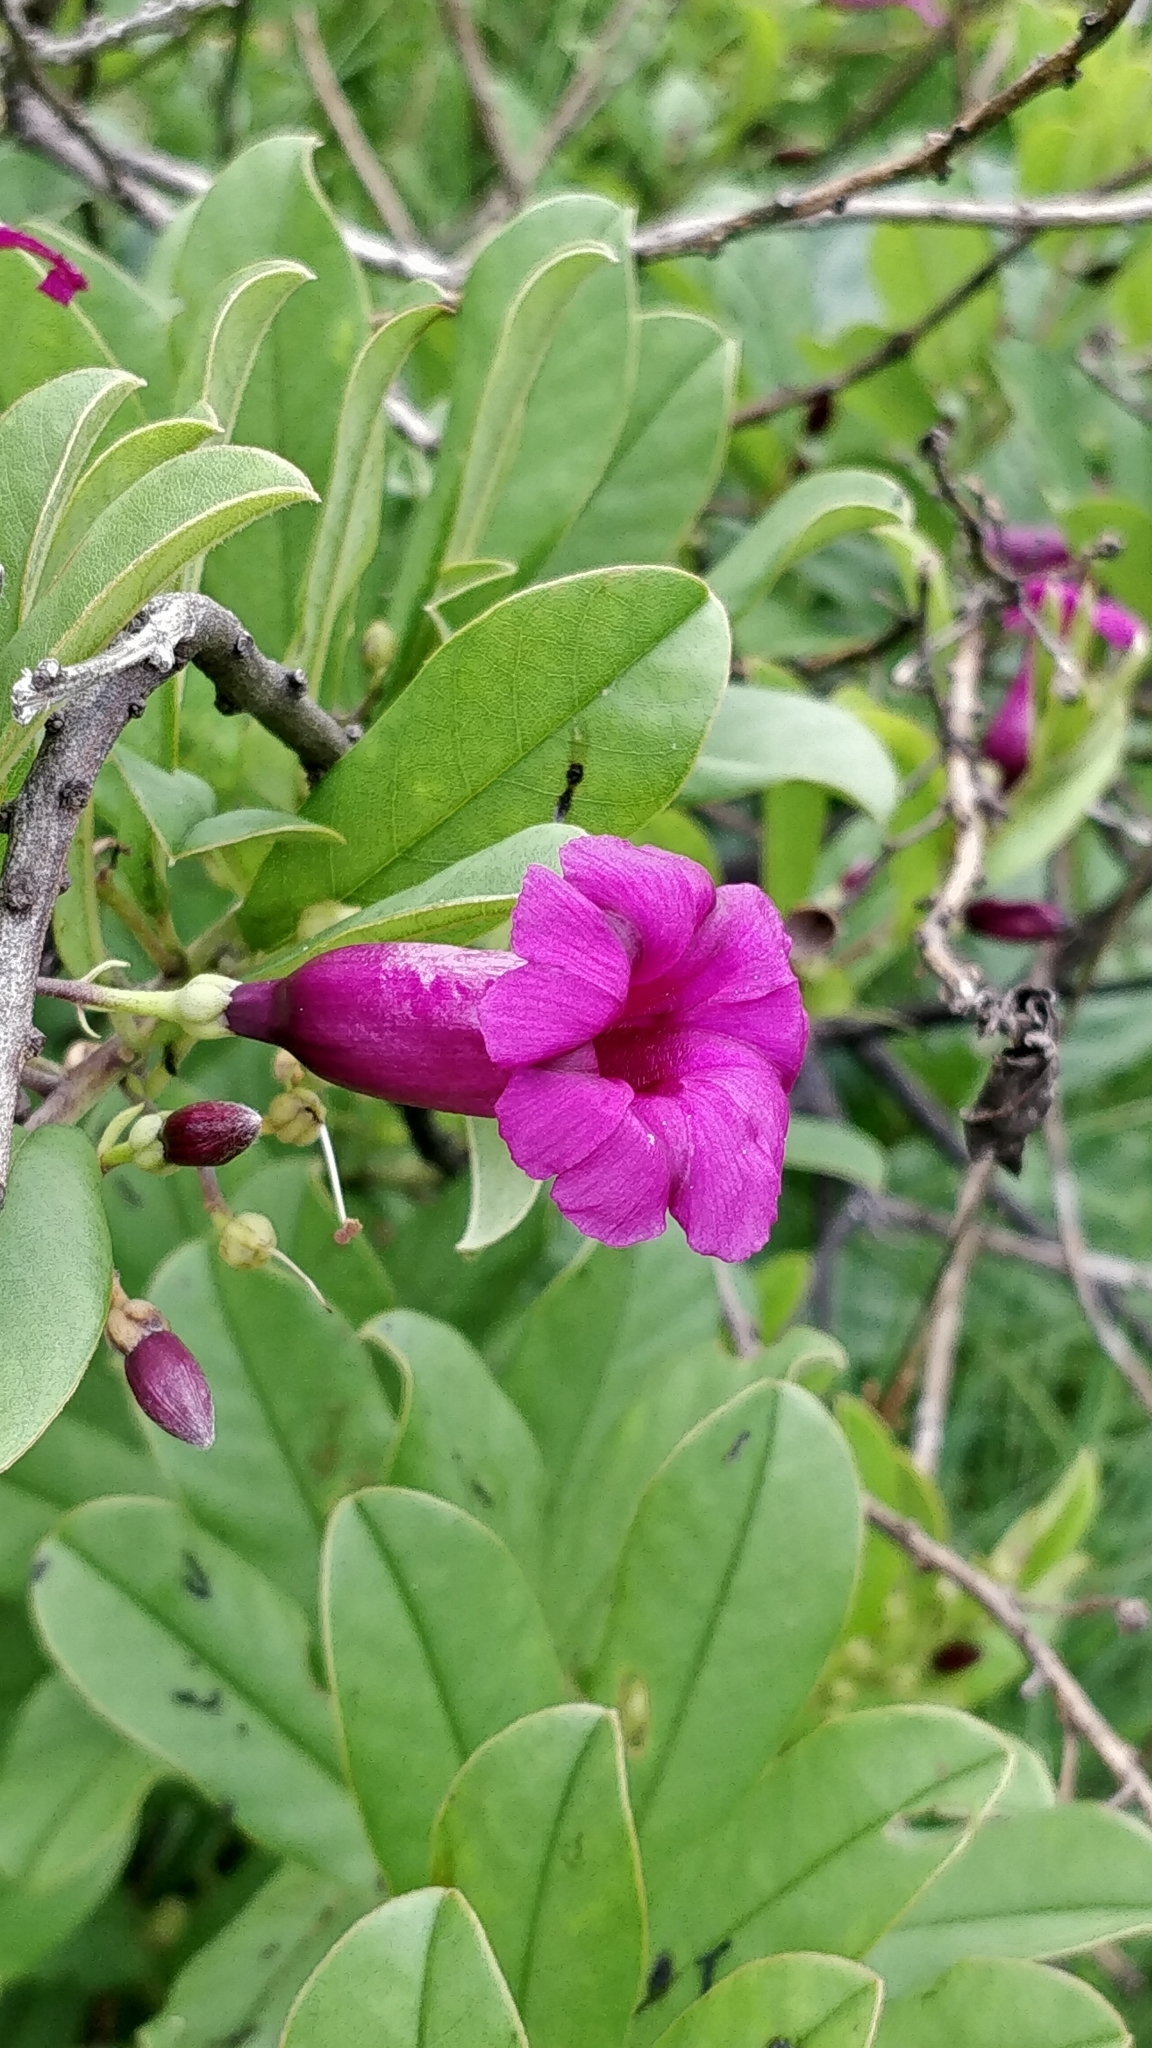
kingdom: Plantae
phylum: Tracheophyta
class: Magnoliopsida
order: Solanales
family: Convolvulaceae
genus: Argyreia
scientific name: Argyreia cuneata
